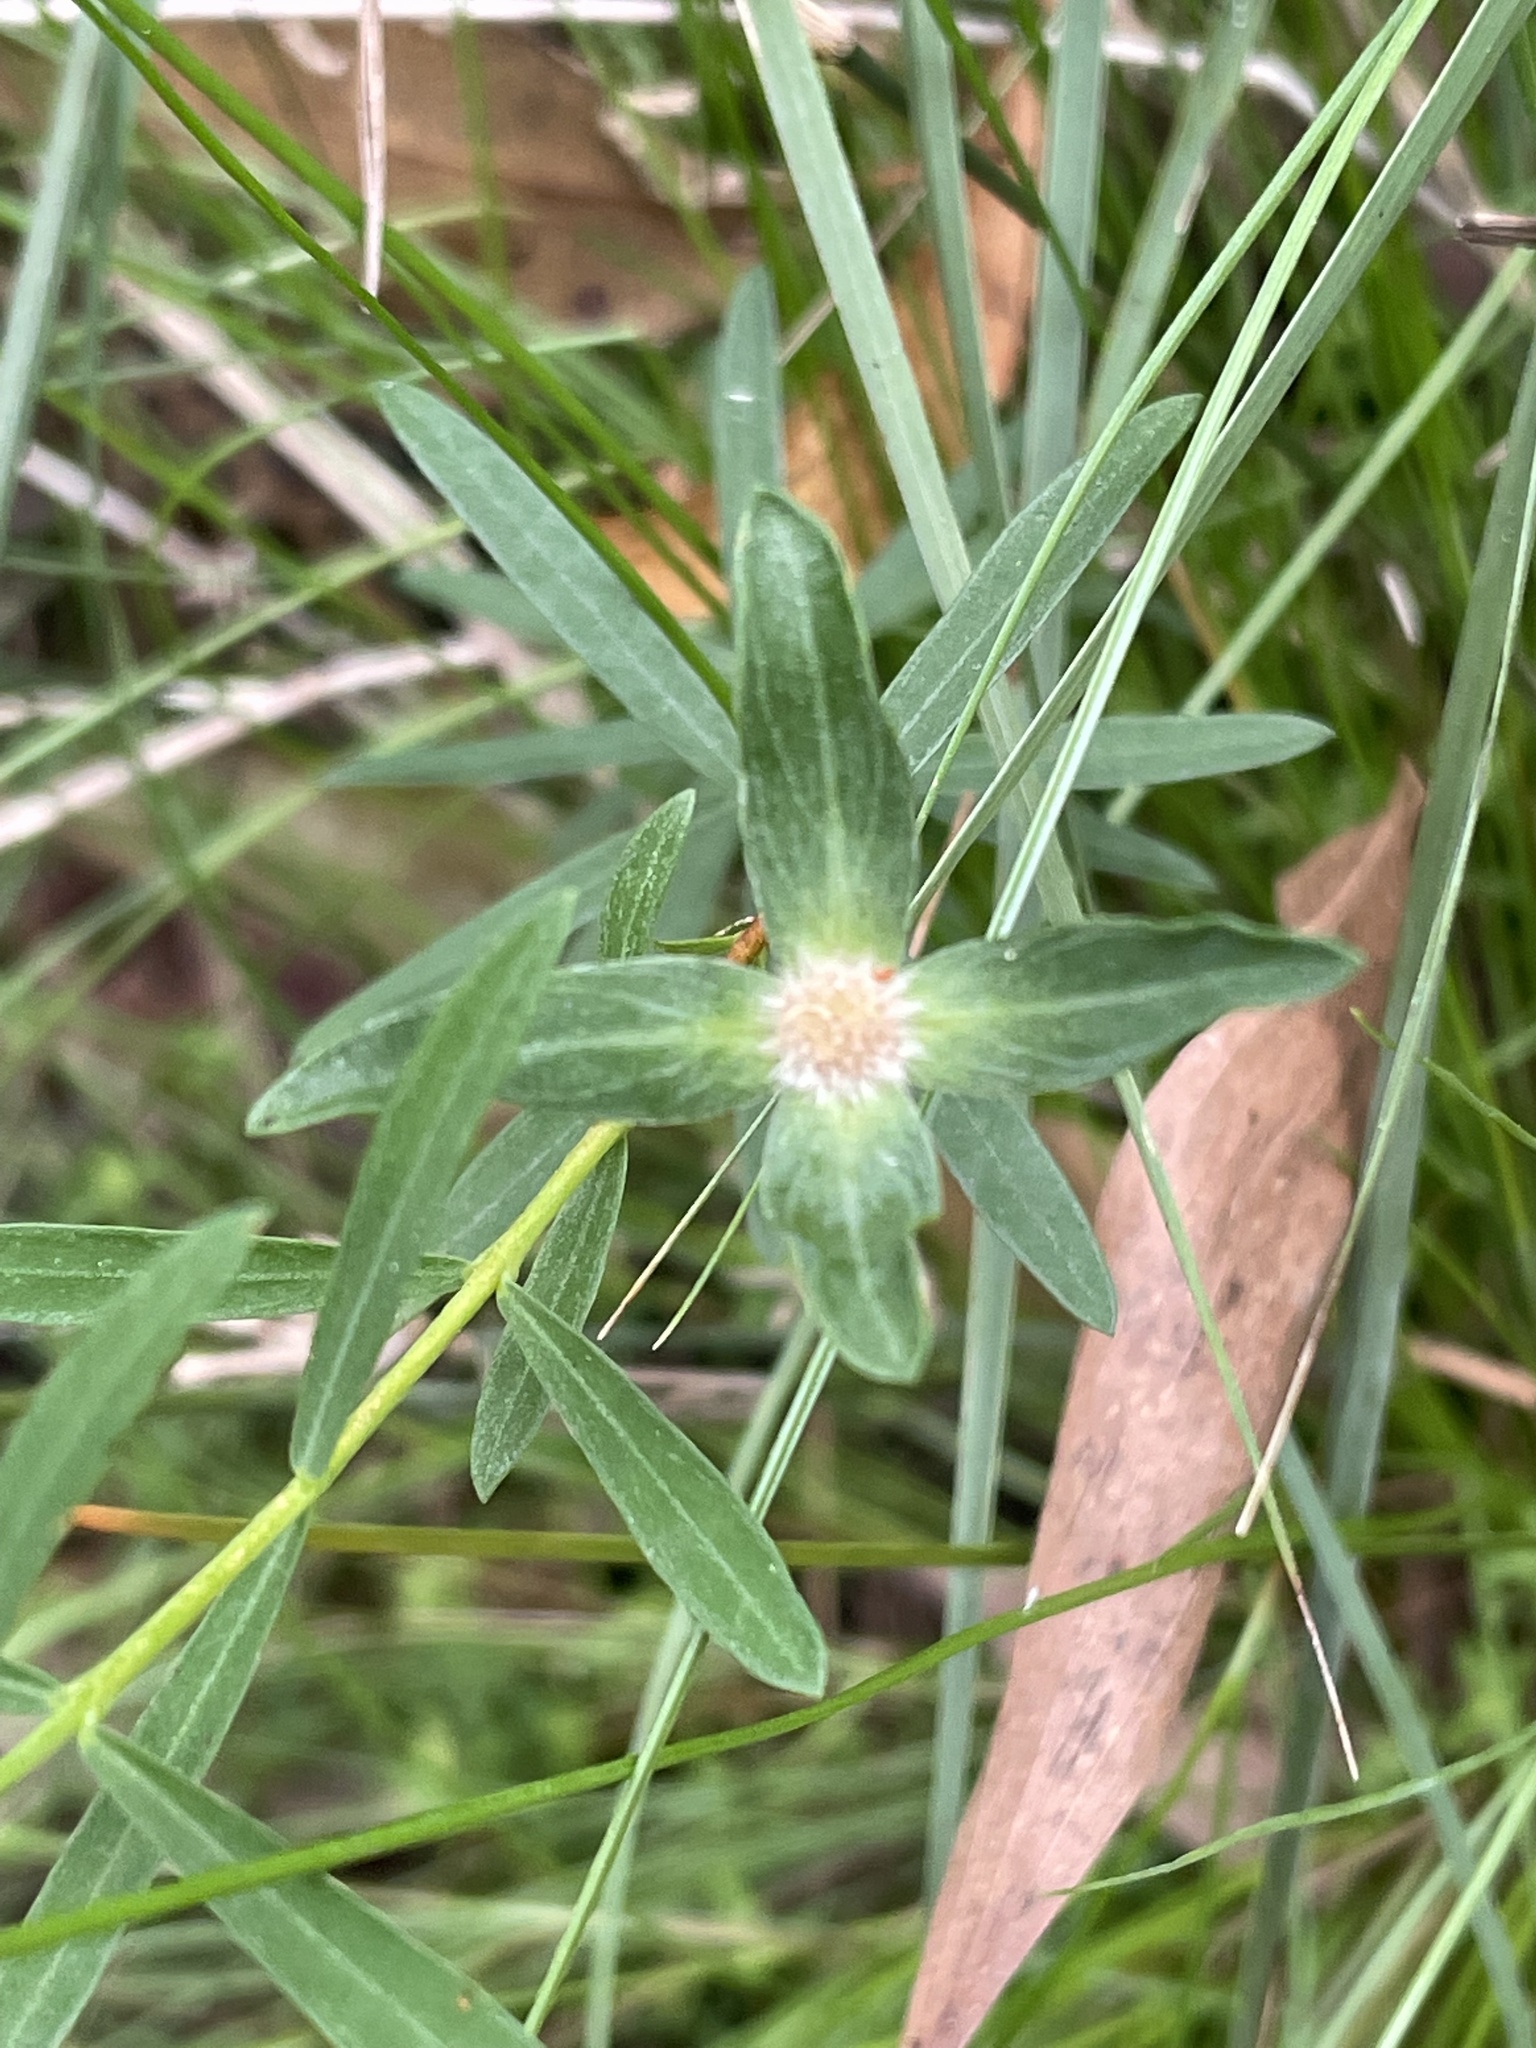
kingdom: Plantae
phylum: Tracheophyta
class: Magnoliopsida
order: Malvales
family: Thymelaeaceae
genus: Pimelea
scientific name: Pimelea linifolia
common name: Queen-of-the-bush
